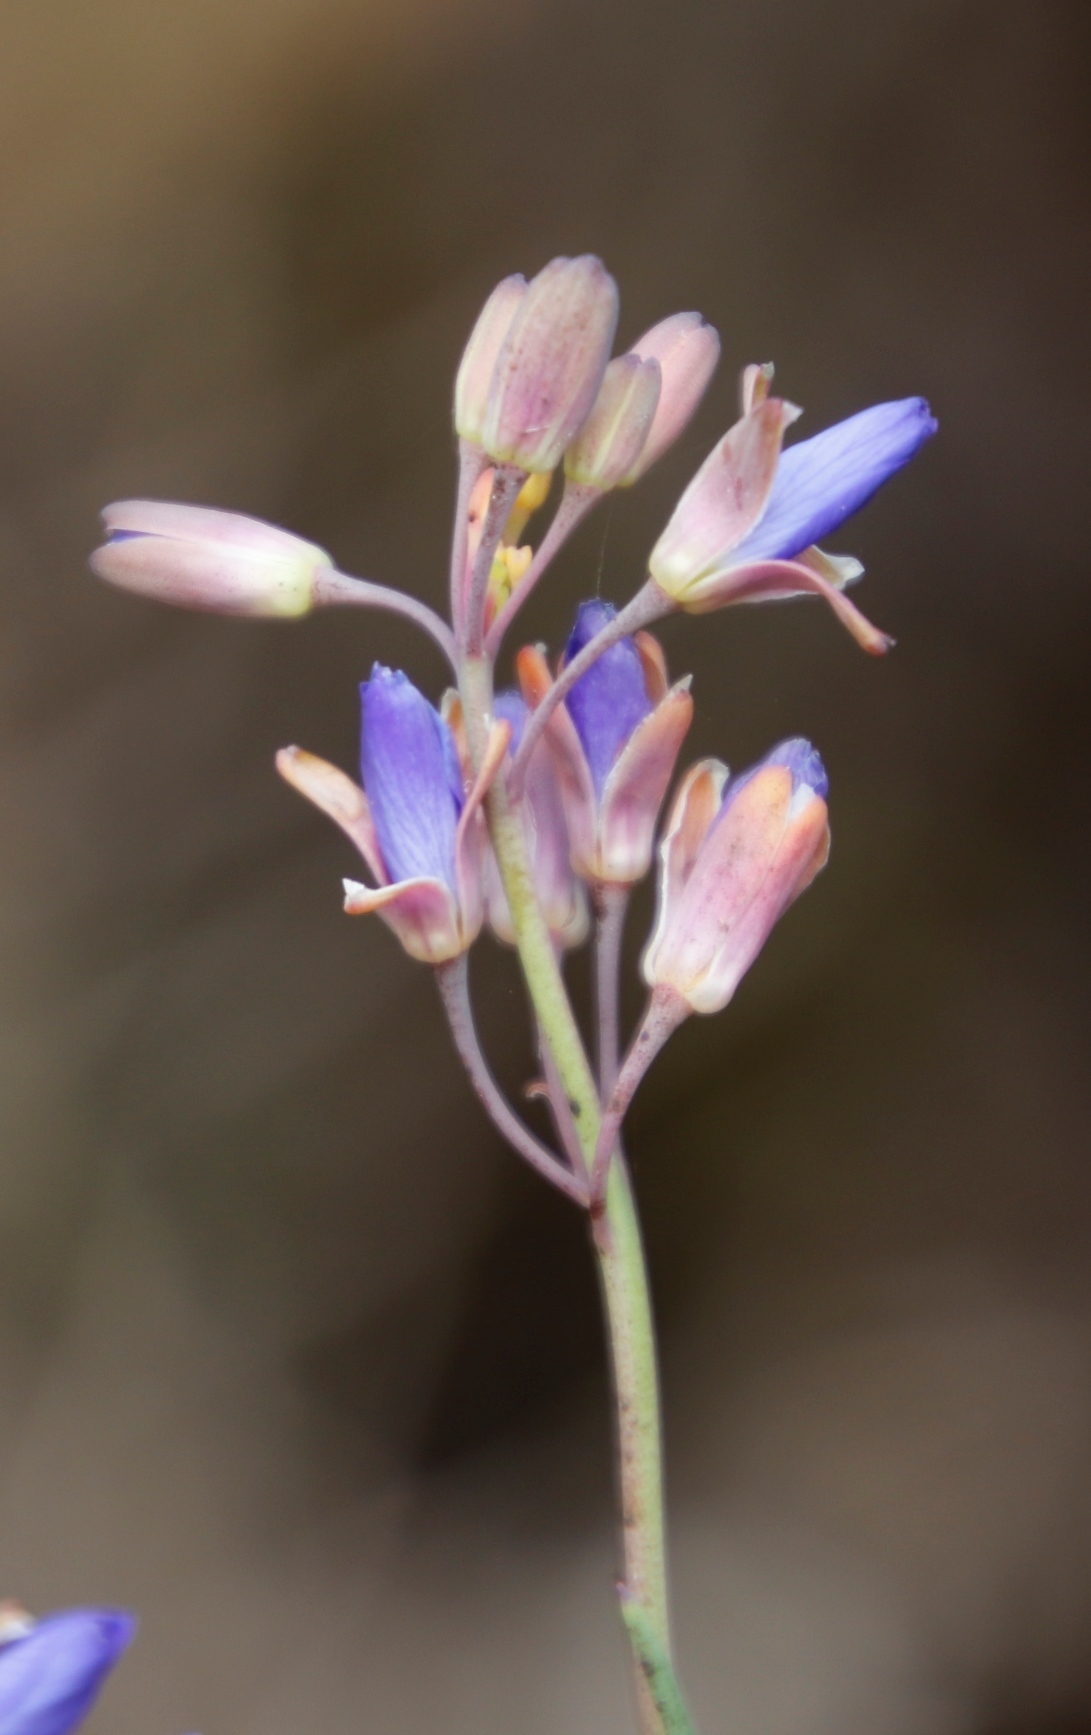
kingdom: Plantae
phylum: Tracheophyta
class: Magnoliopsida
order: Brassicales
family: Brassicaceae
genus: Heliophila
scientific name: Heliophila linearis
